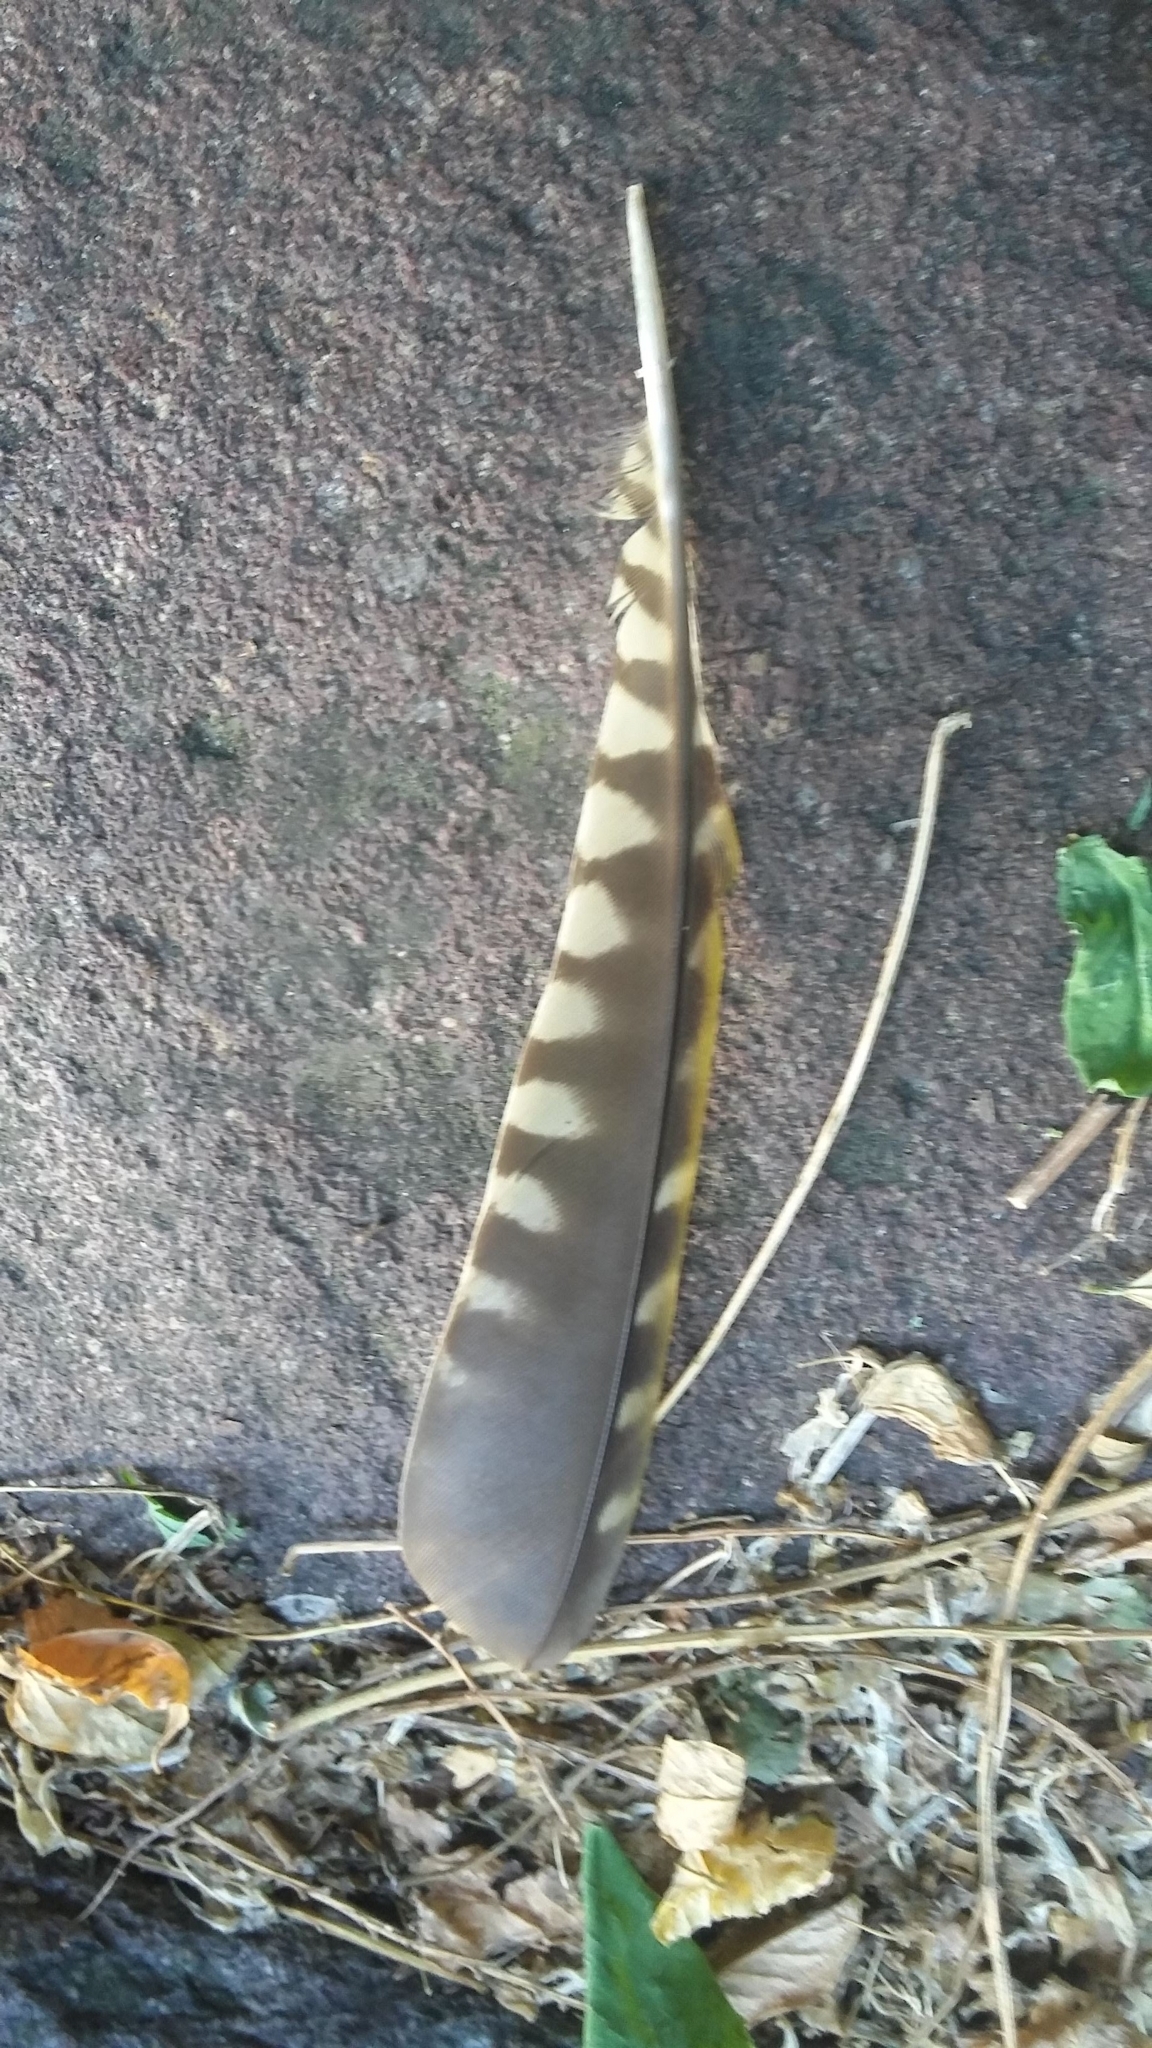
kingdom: Animalia
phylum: Chordata
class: Aves
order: Piciformes
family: Picidae
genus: Picus
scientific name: Picus viridis
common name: European green woodpecker
